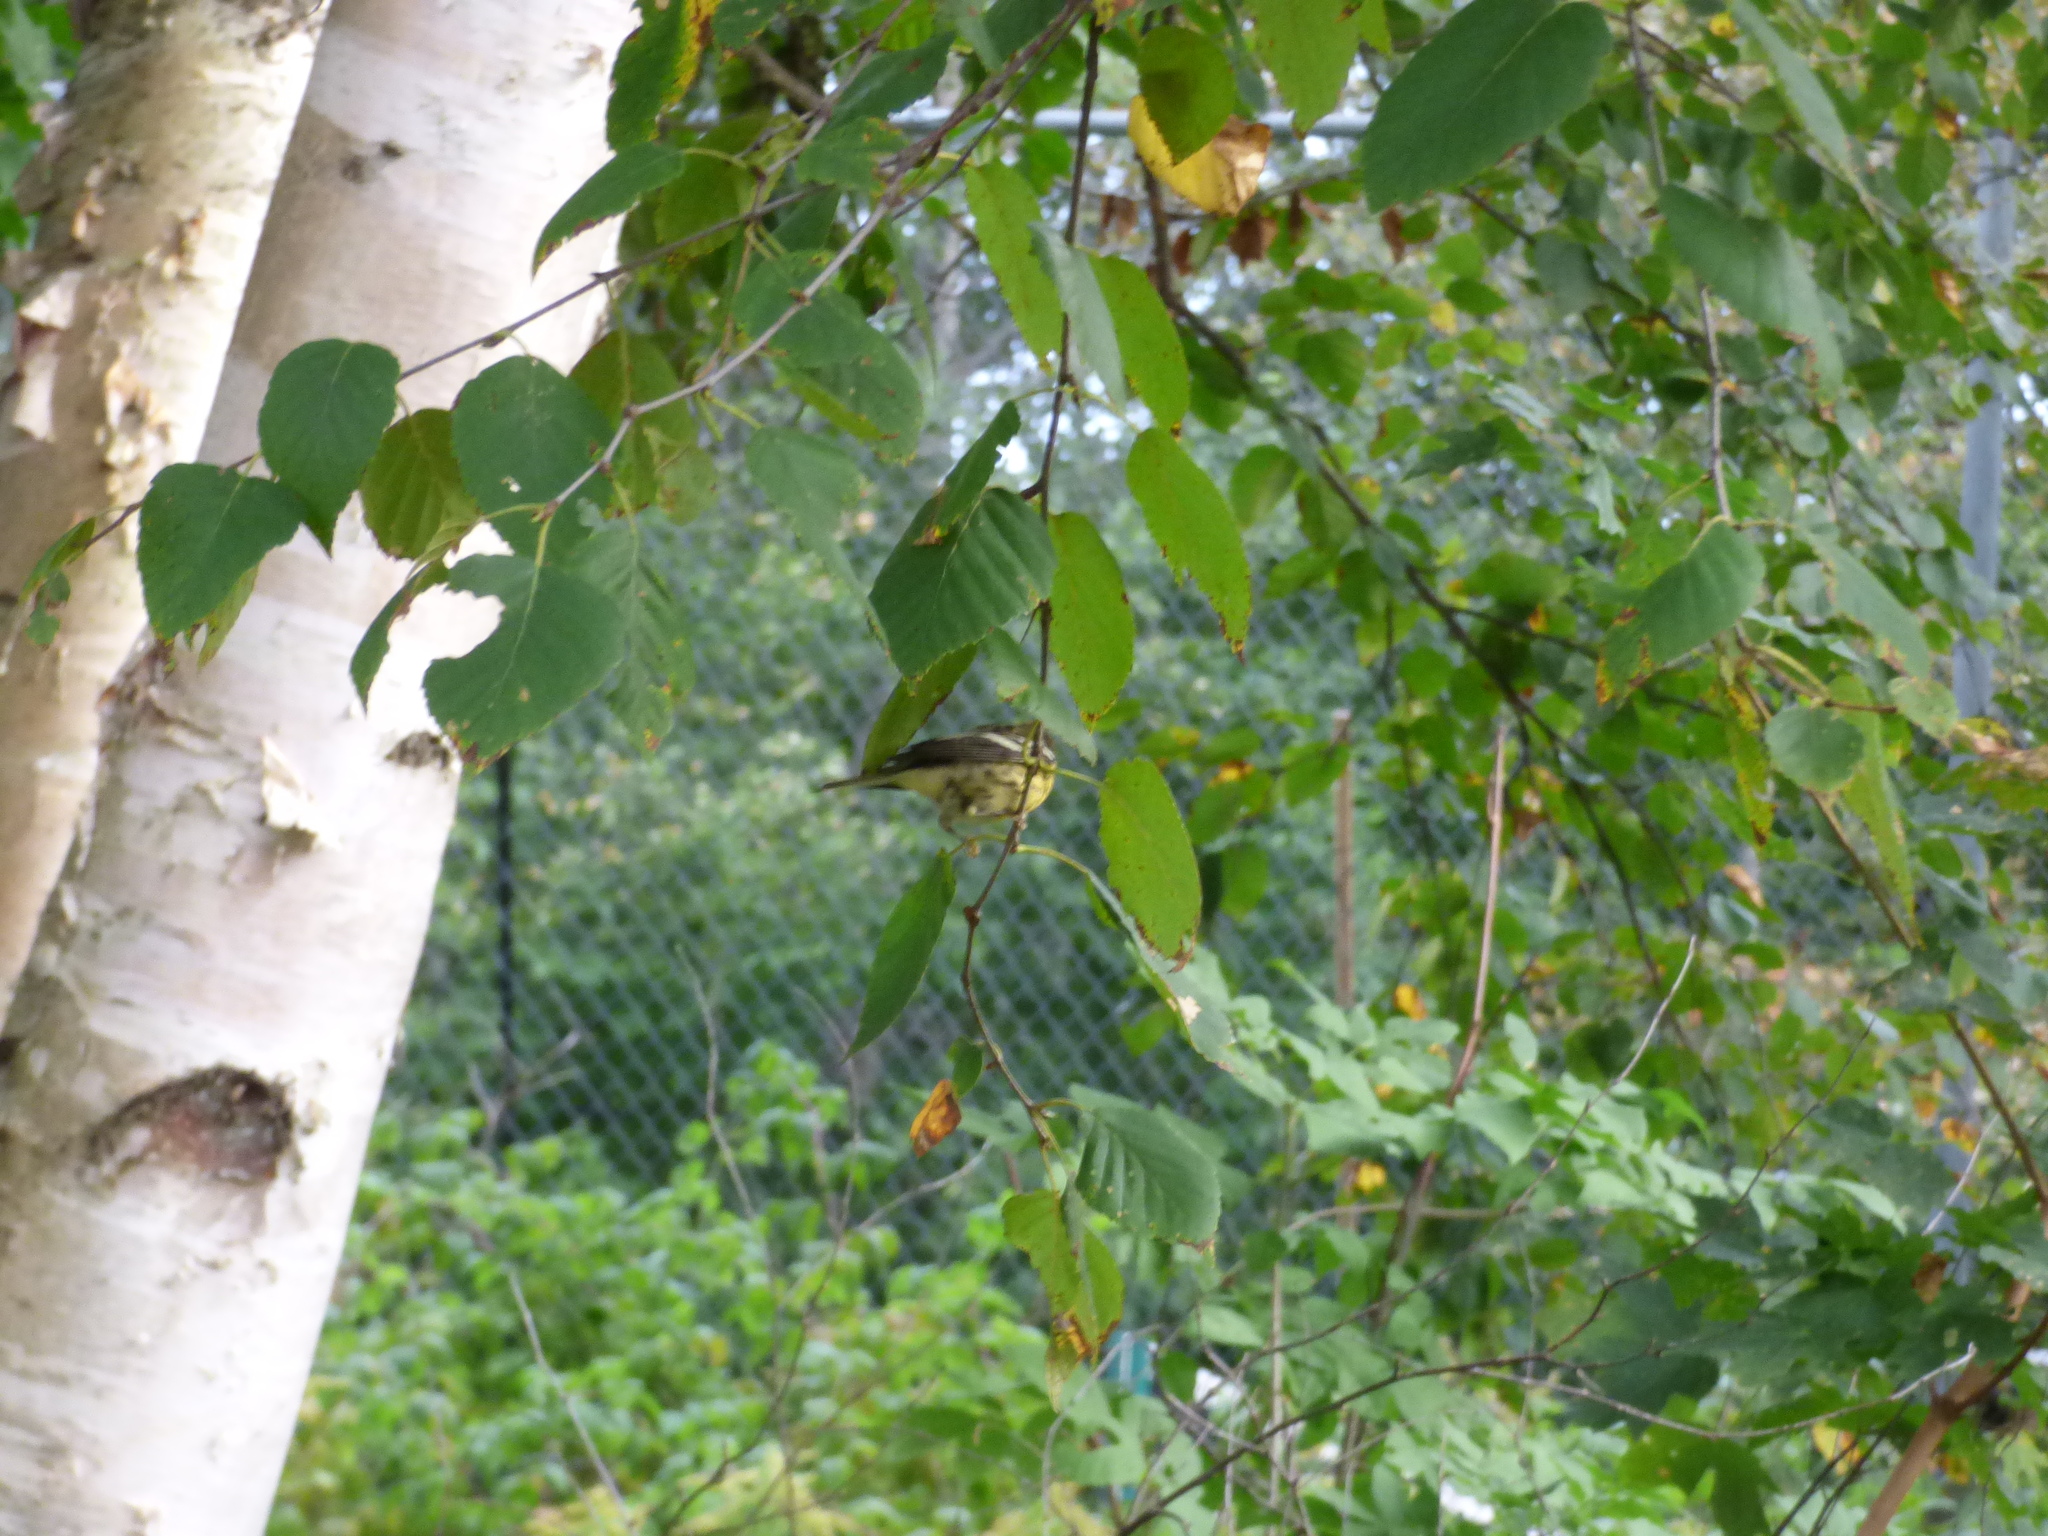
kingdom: Plantae
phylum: Tracheophyta
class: Magnoliopsida
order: Fagales
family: Betulaceae
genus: Betula
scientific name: Betula papyrifera
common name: Paper birch
